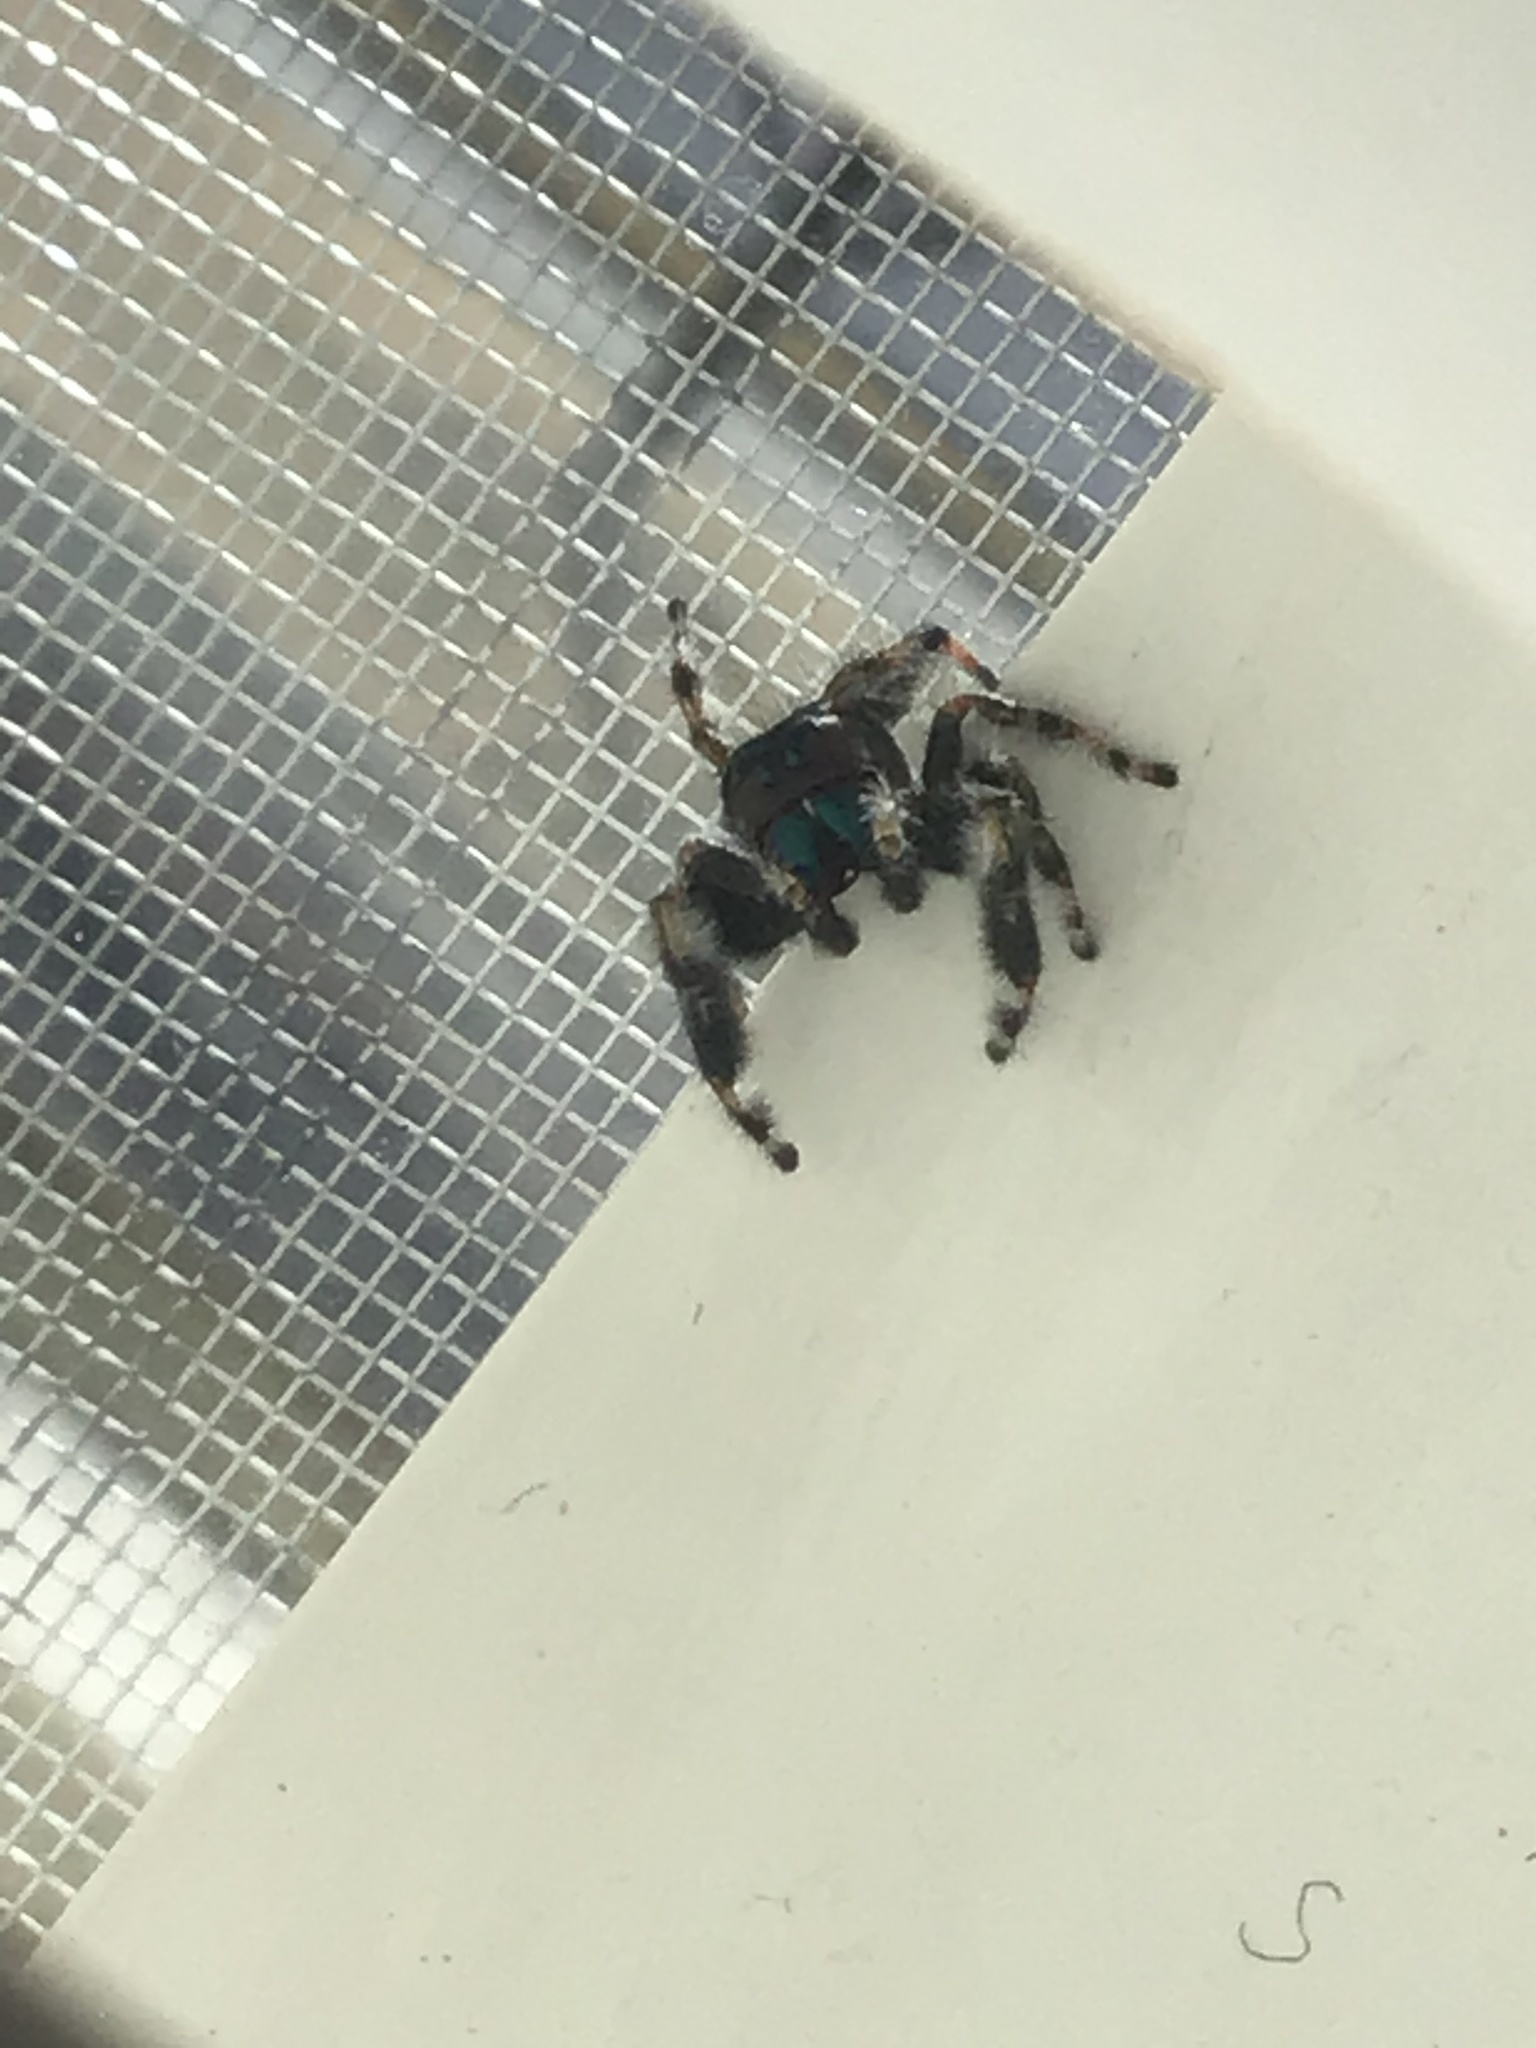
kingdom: Animalia
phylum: Arthropoda
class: Arachnida
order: Araneae
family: Salticidae
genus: Phidippus
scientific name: Phidippus audax
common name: Bold jumper
